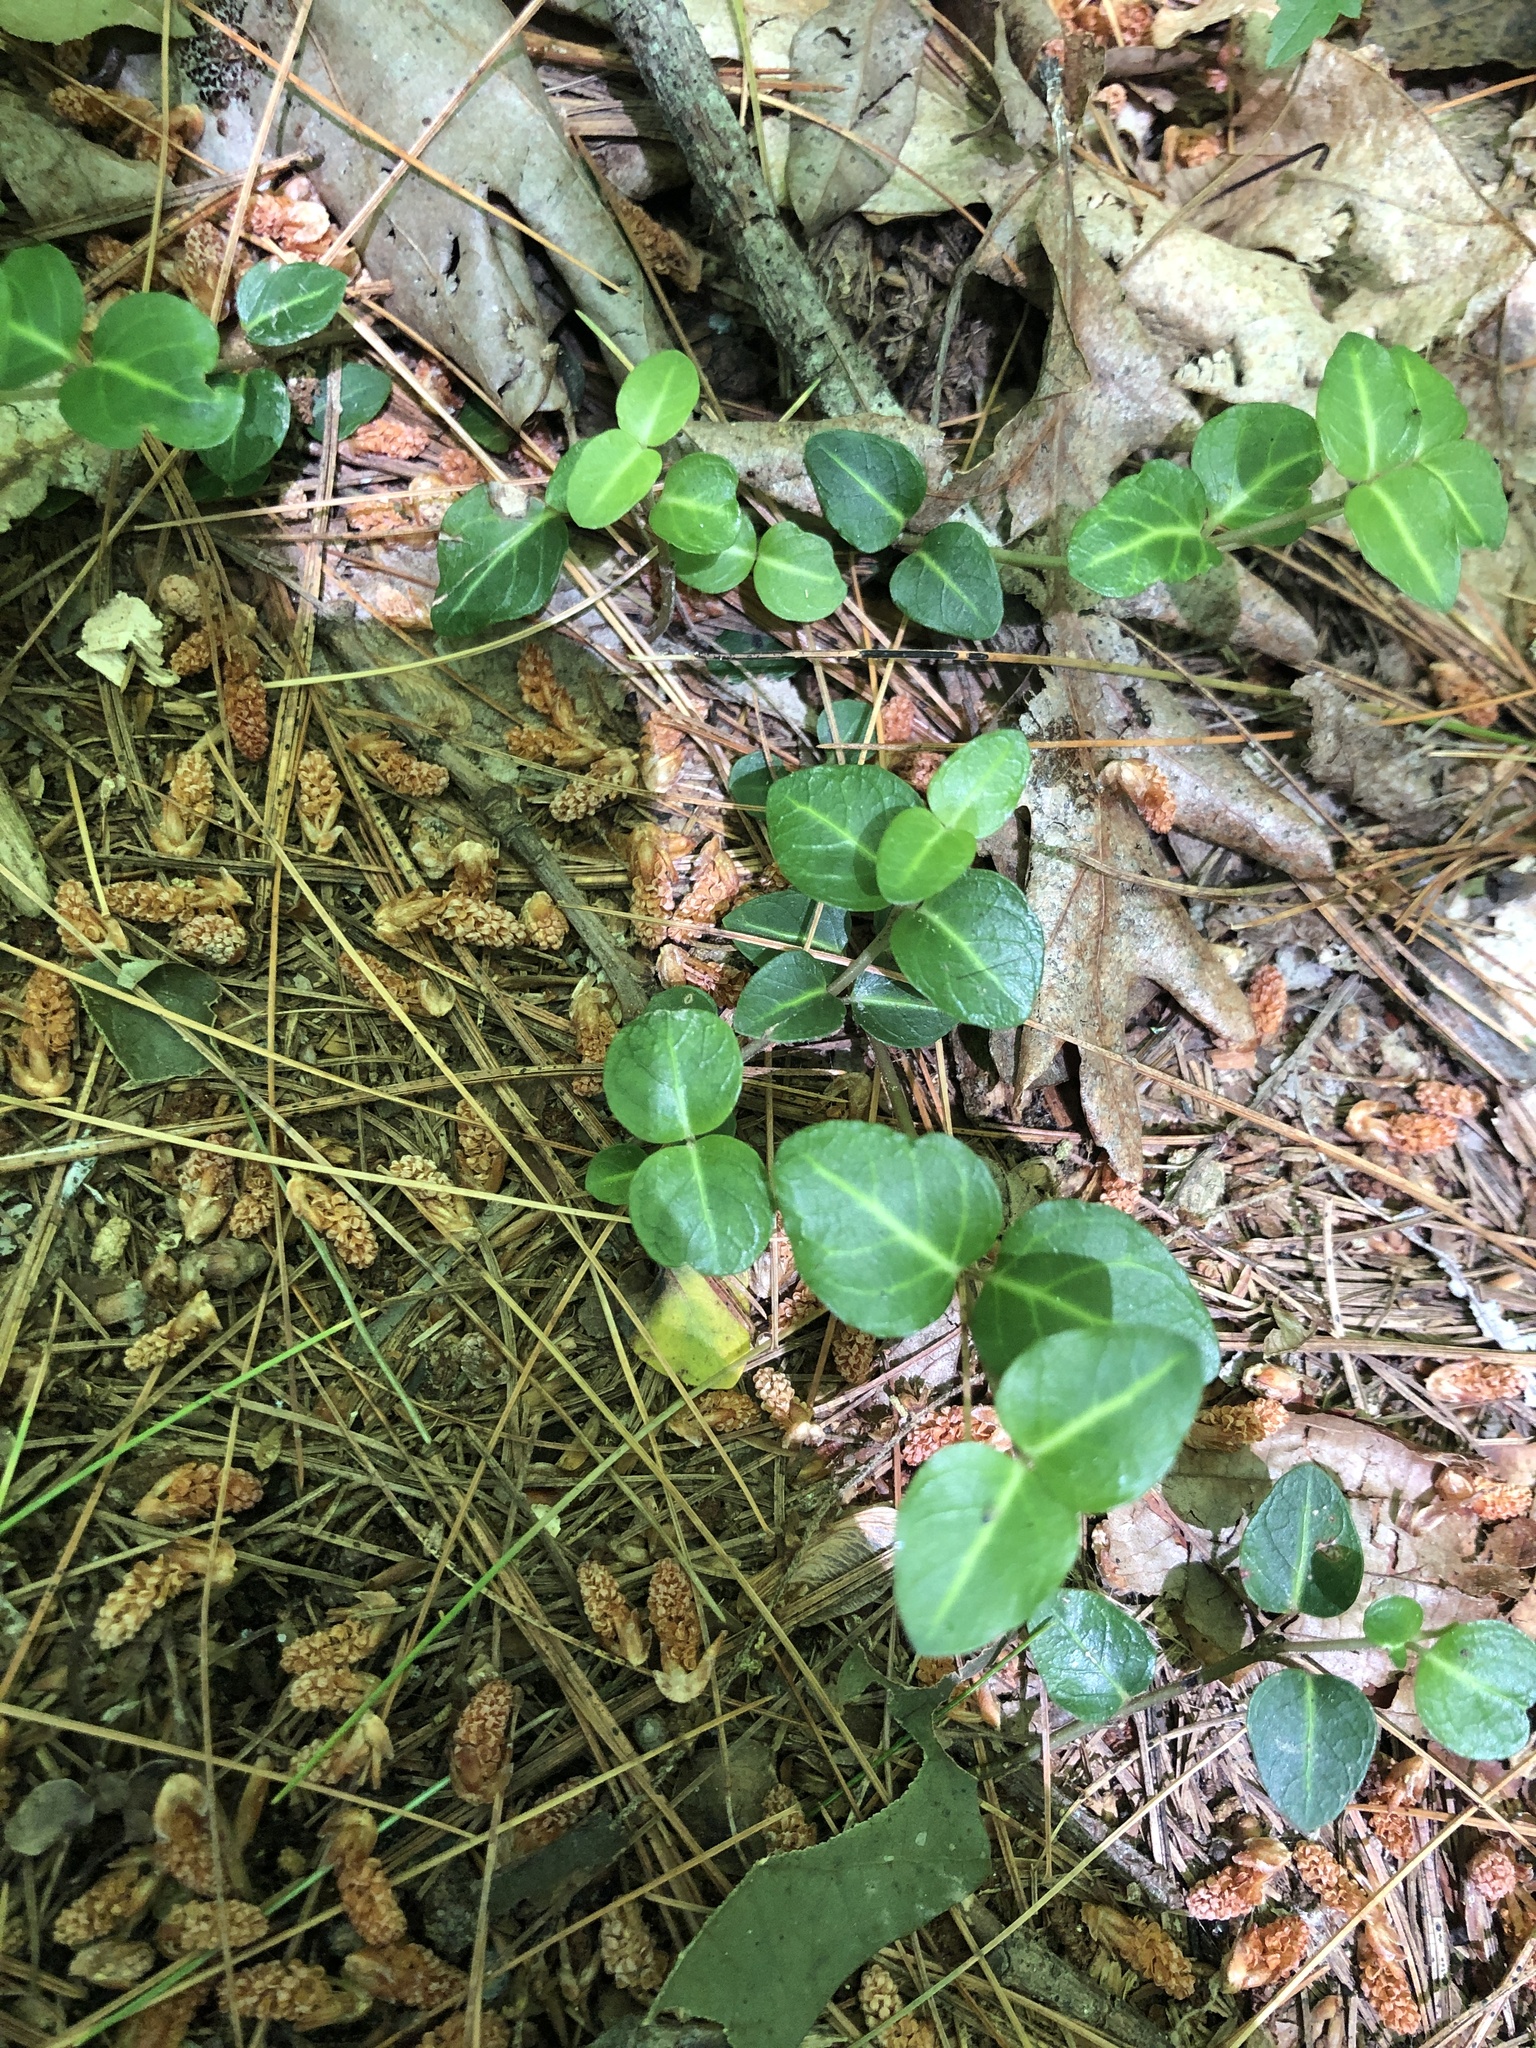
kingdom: Plantae
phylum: Tracheophyta
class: Magnoliopsida
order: Gentianales
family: Rubiaceae
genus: Mitchella
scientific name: Mitchella repens
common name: Partridge-berry
